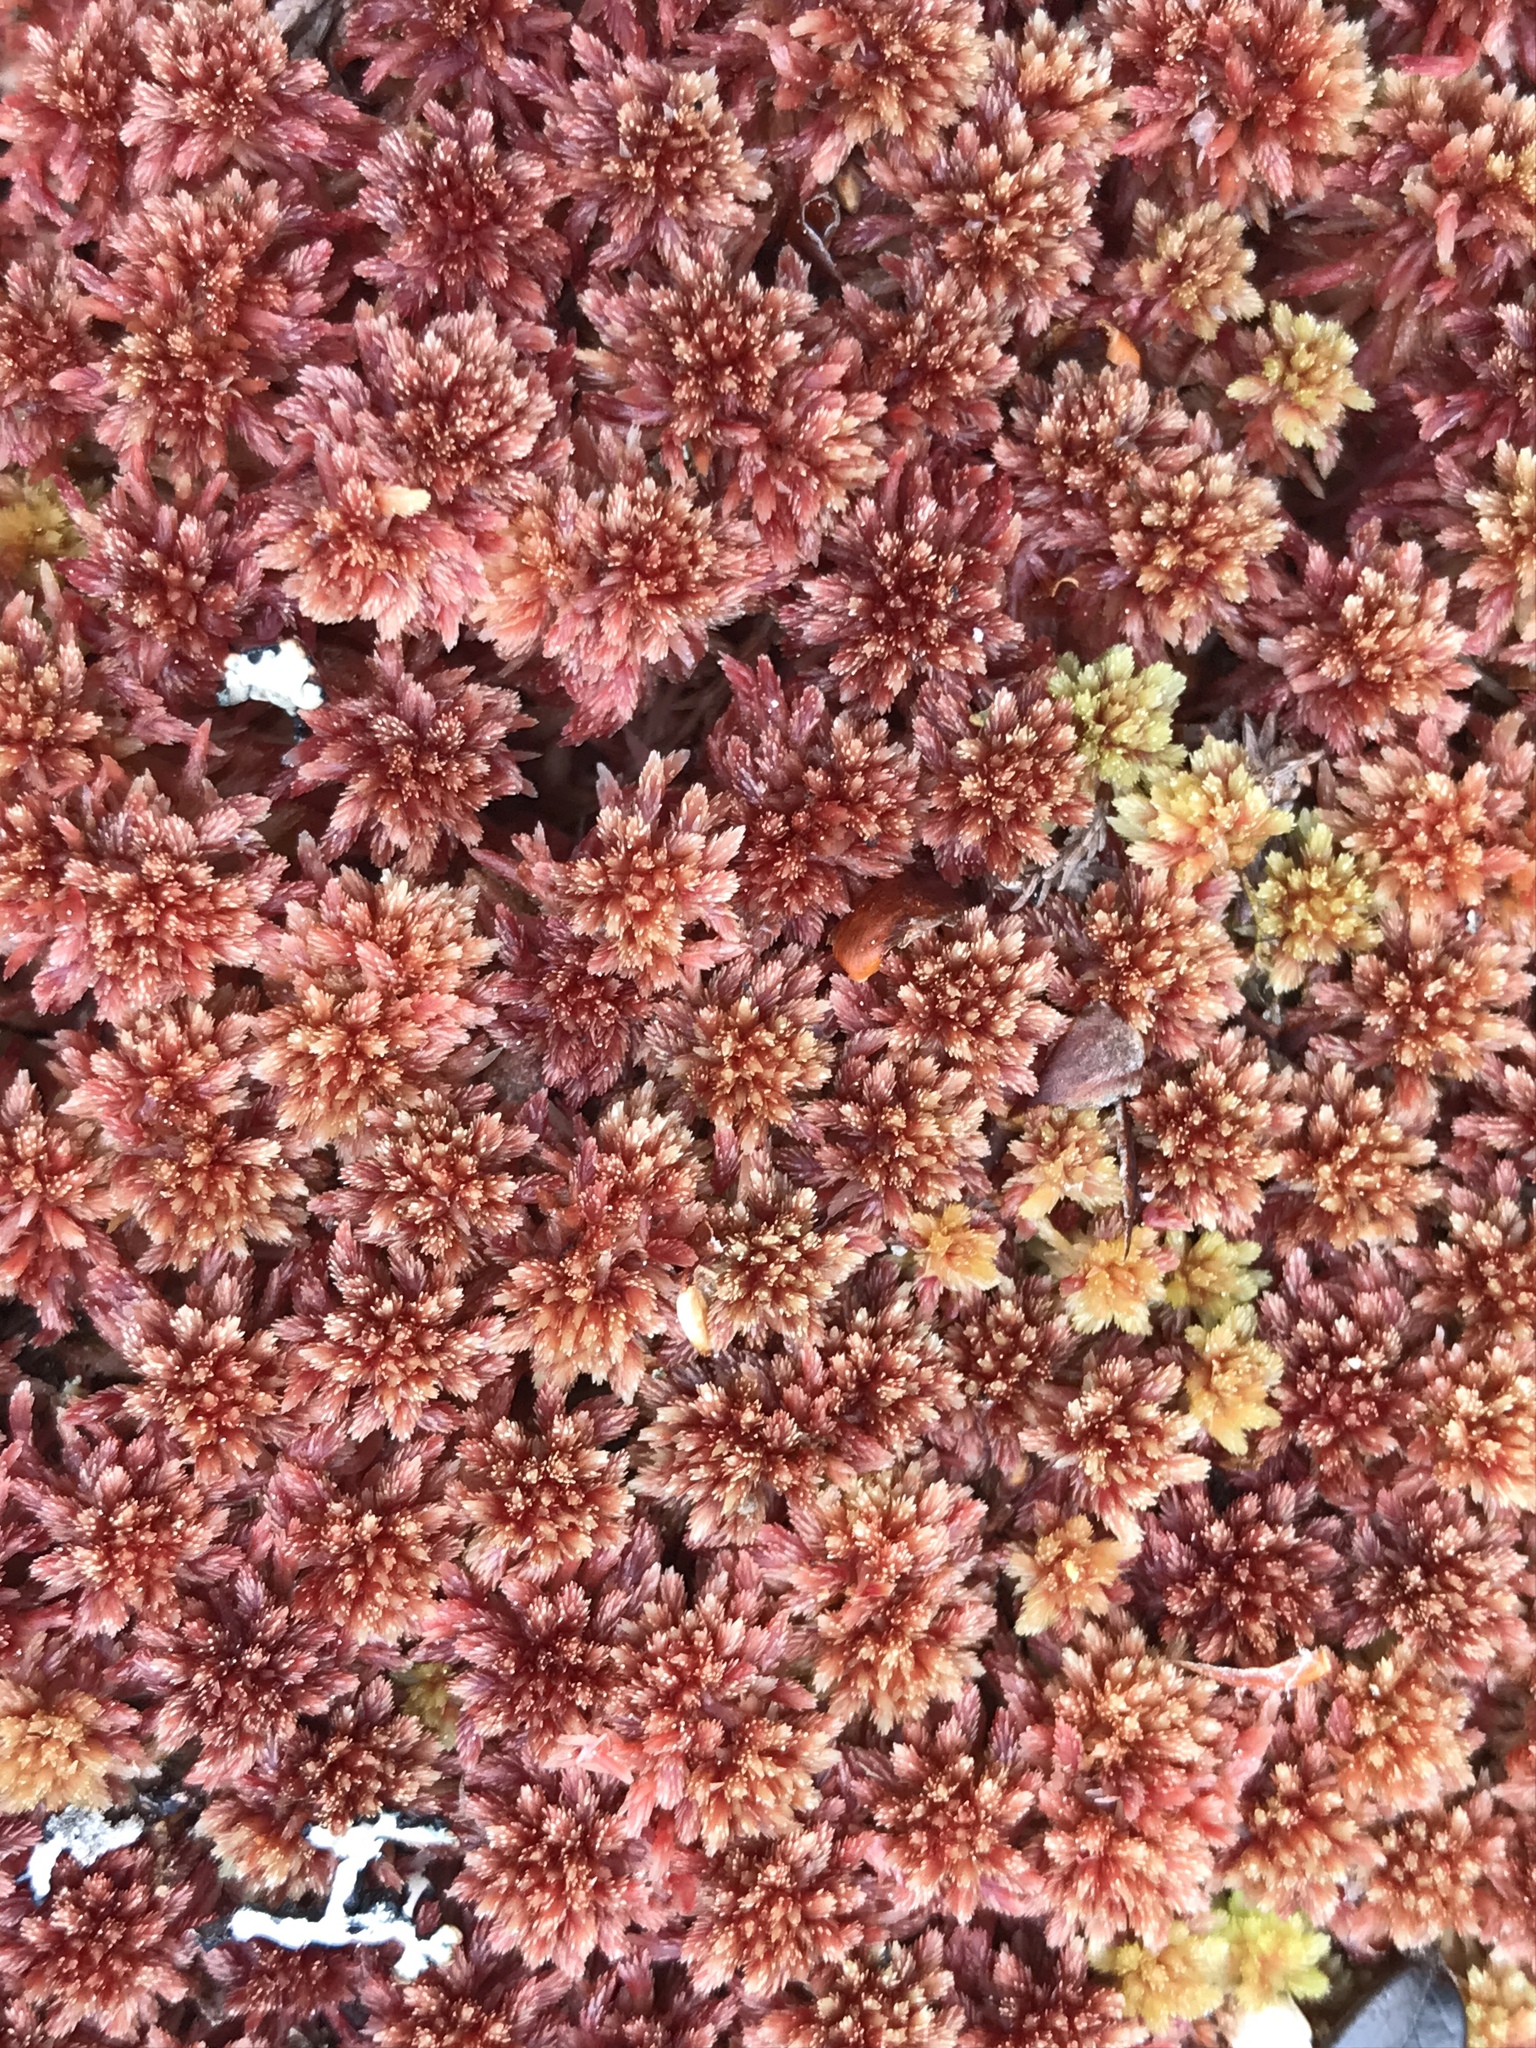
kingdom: Plantae
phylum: Bryophyta
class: Sphagnopsida
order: Sphagnales
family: Sphagnaceae
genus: Sphagnum
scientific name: Sphagnum capillifolium
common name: Small red peat moss
